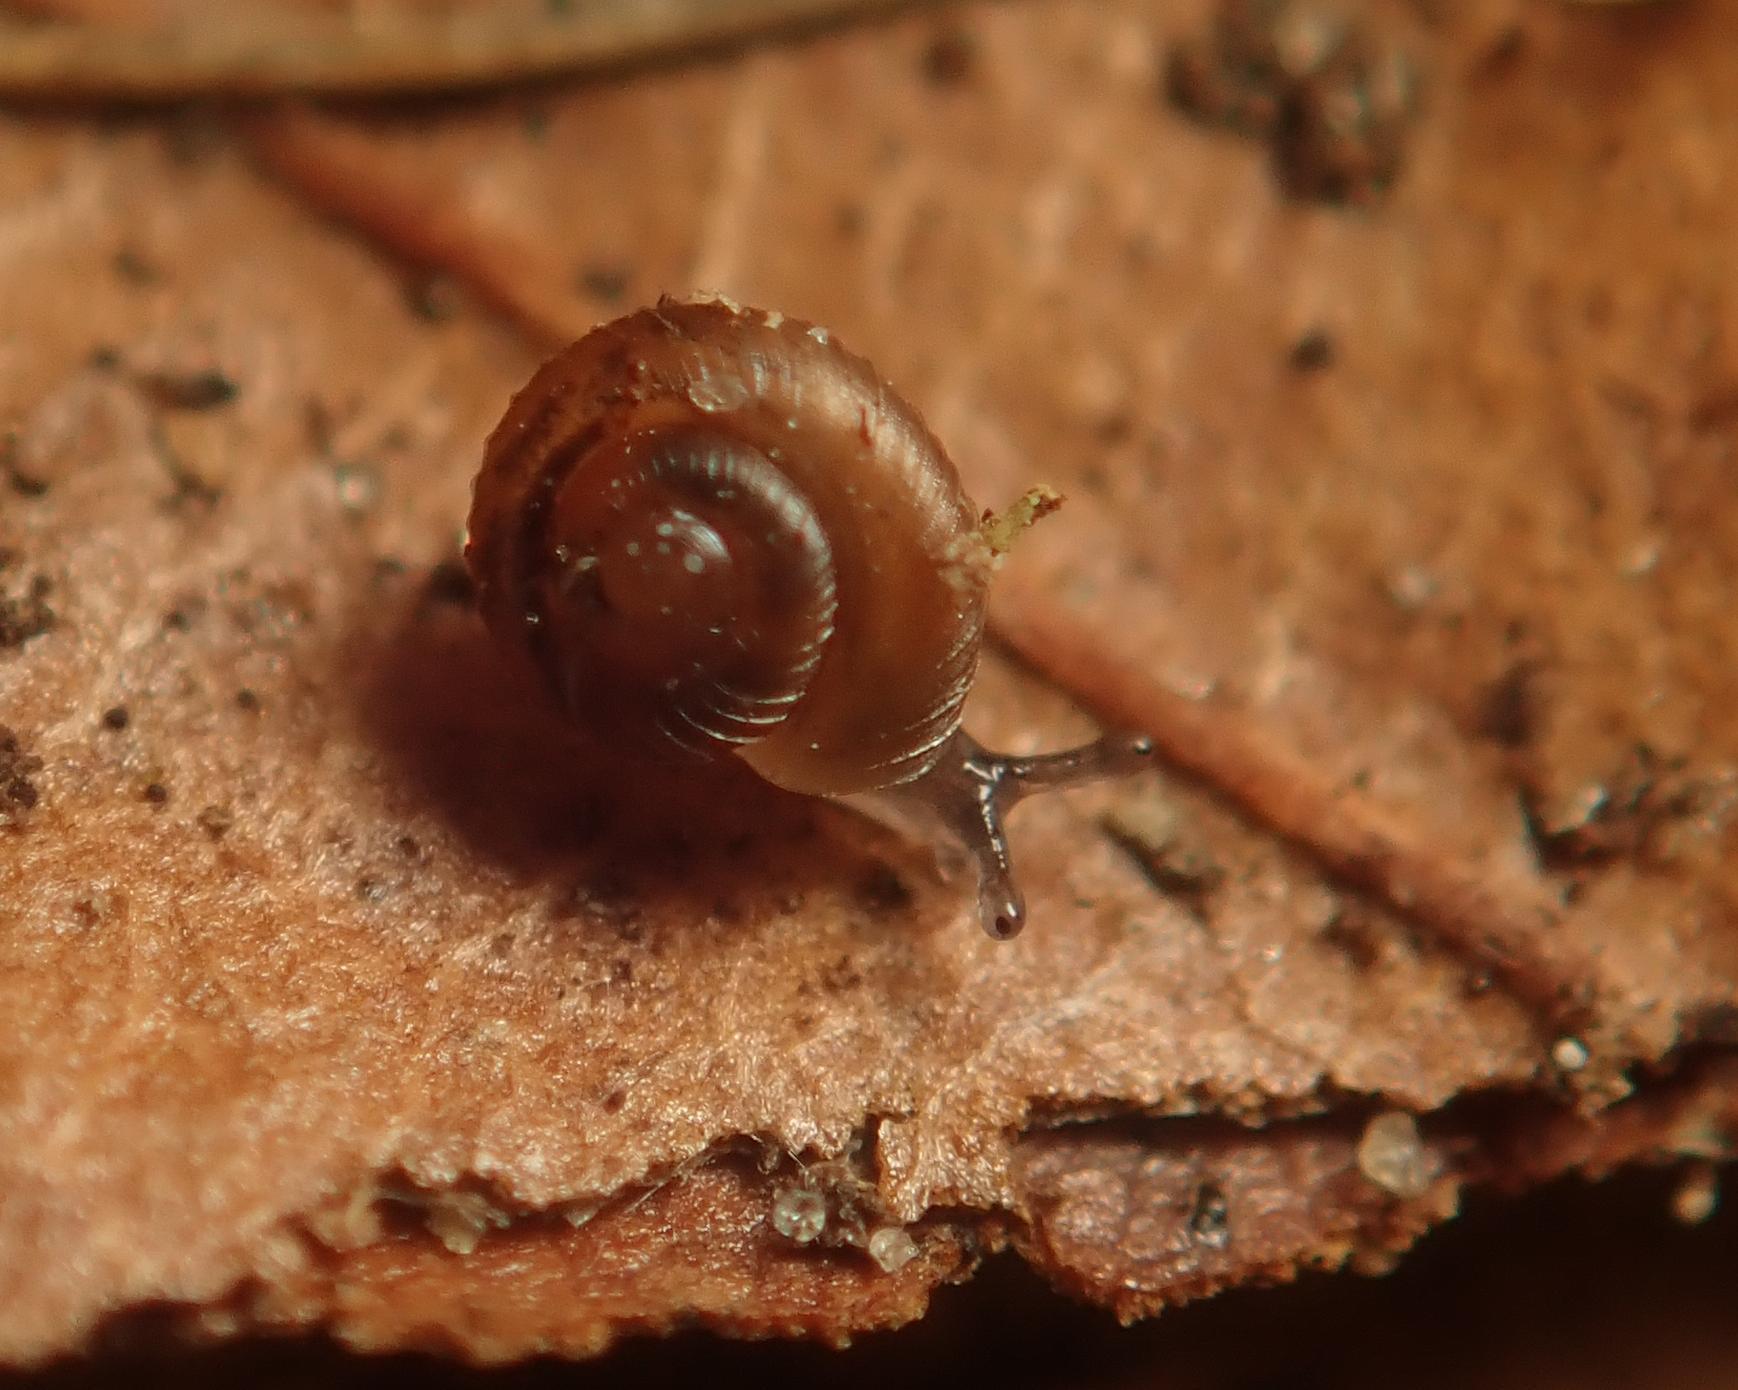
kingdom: Animalia
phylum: Mollusca
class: Gastropoda
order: Stylommatophora
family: Punctidae
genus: Paralaoma
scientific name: Paralaoma servilis
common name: Pinhead spot
